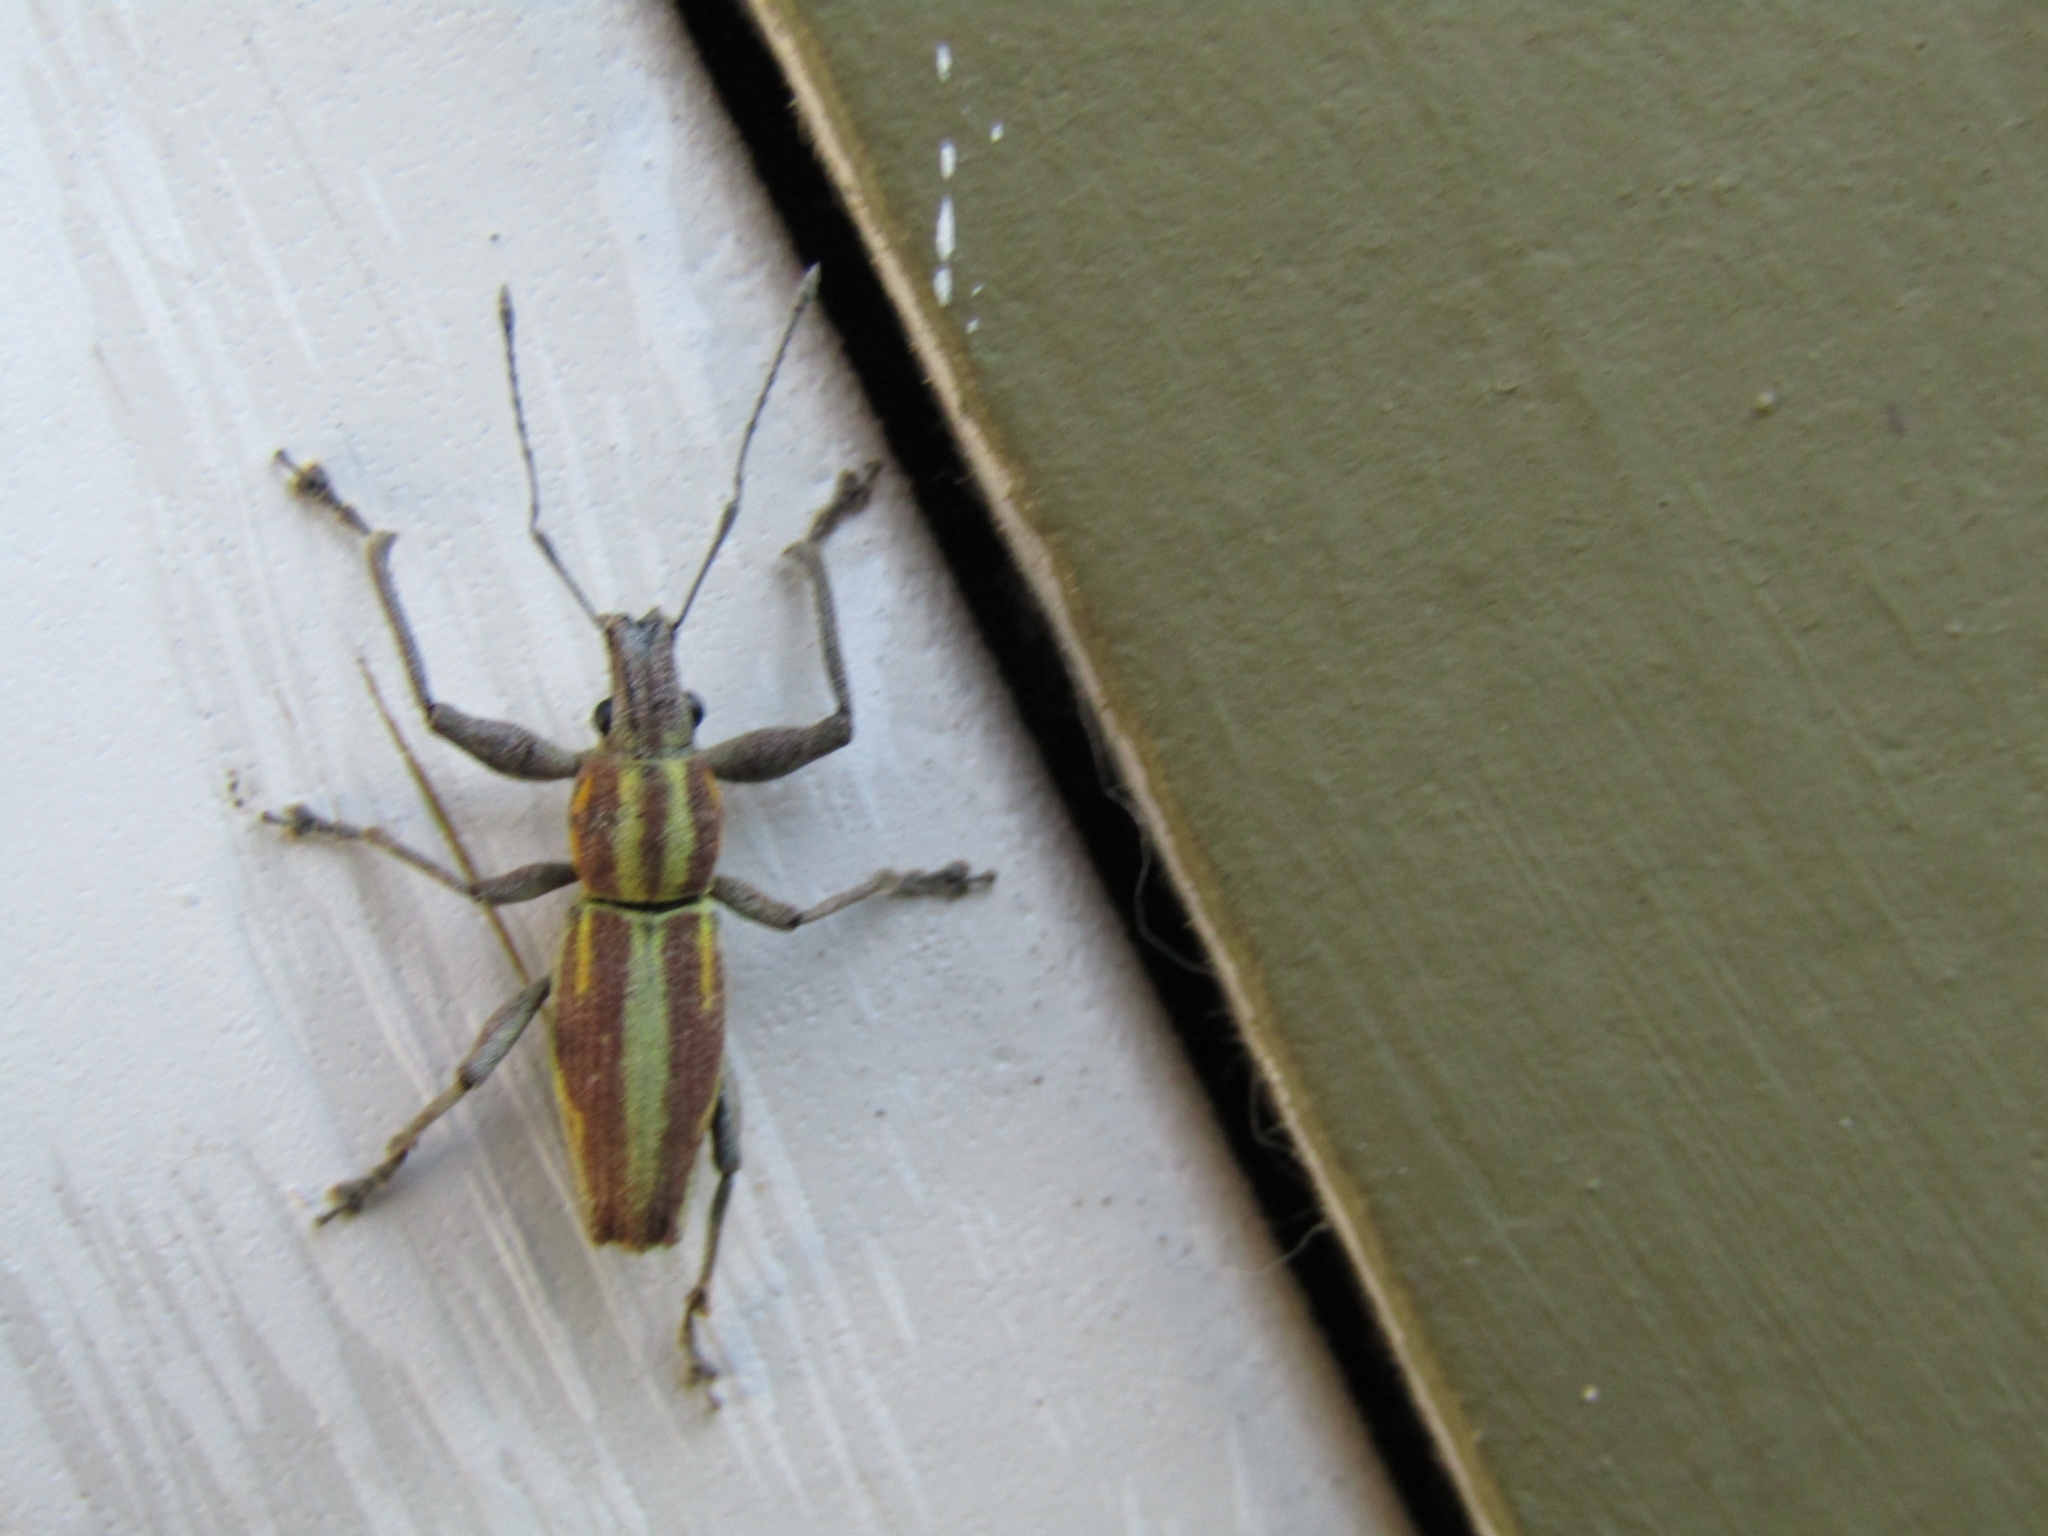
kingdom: Animalia
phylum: Arthropoda
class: Insecta
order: Coleoptera
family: Curculionidae
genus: Naupactus
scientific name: Naupactus xanthographus
